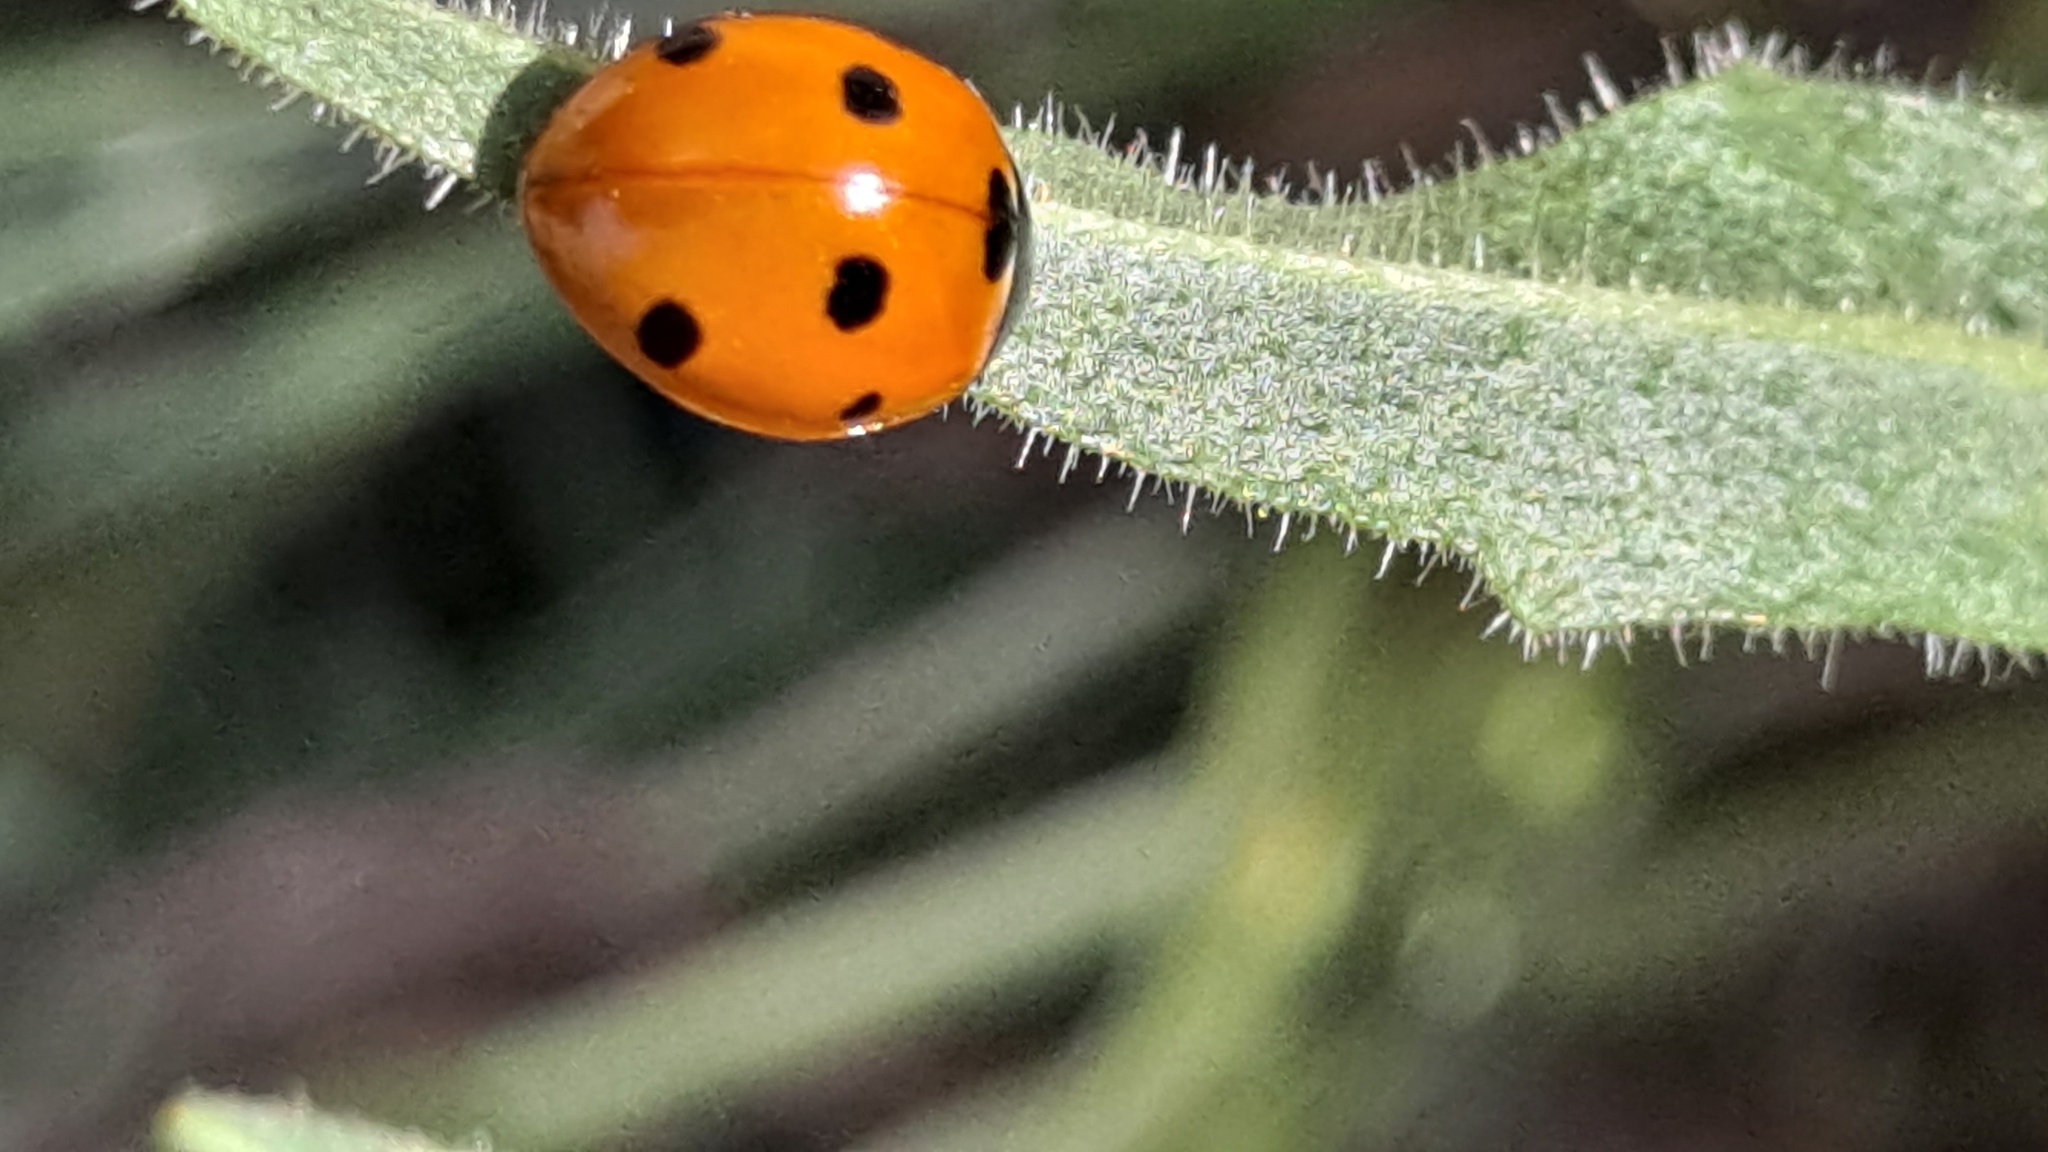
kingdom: Animalia
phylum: Arthropoda
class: Insecta
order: Coleoptera
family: Coccinellidae
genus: Coccinella
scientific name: Coccinella septempunctata
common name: Sevenspotted lady beetle
